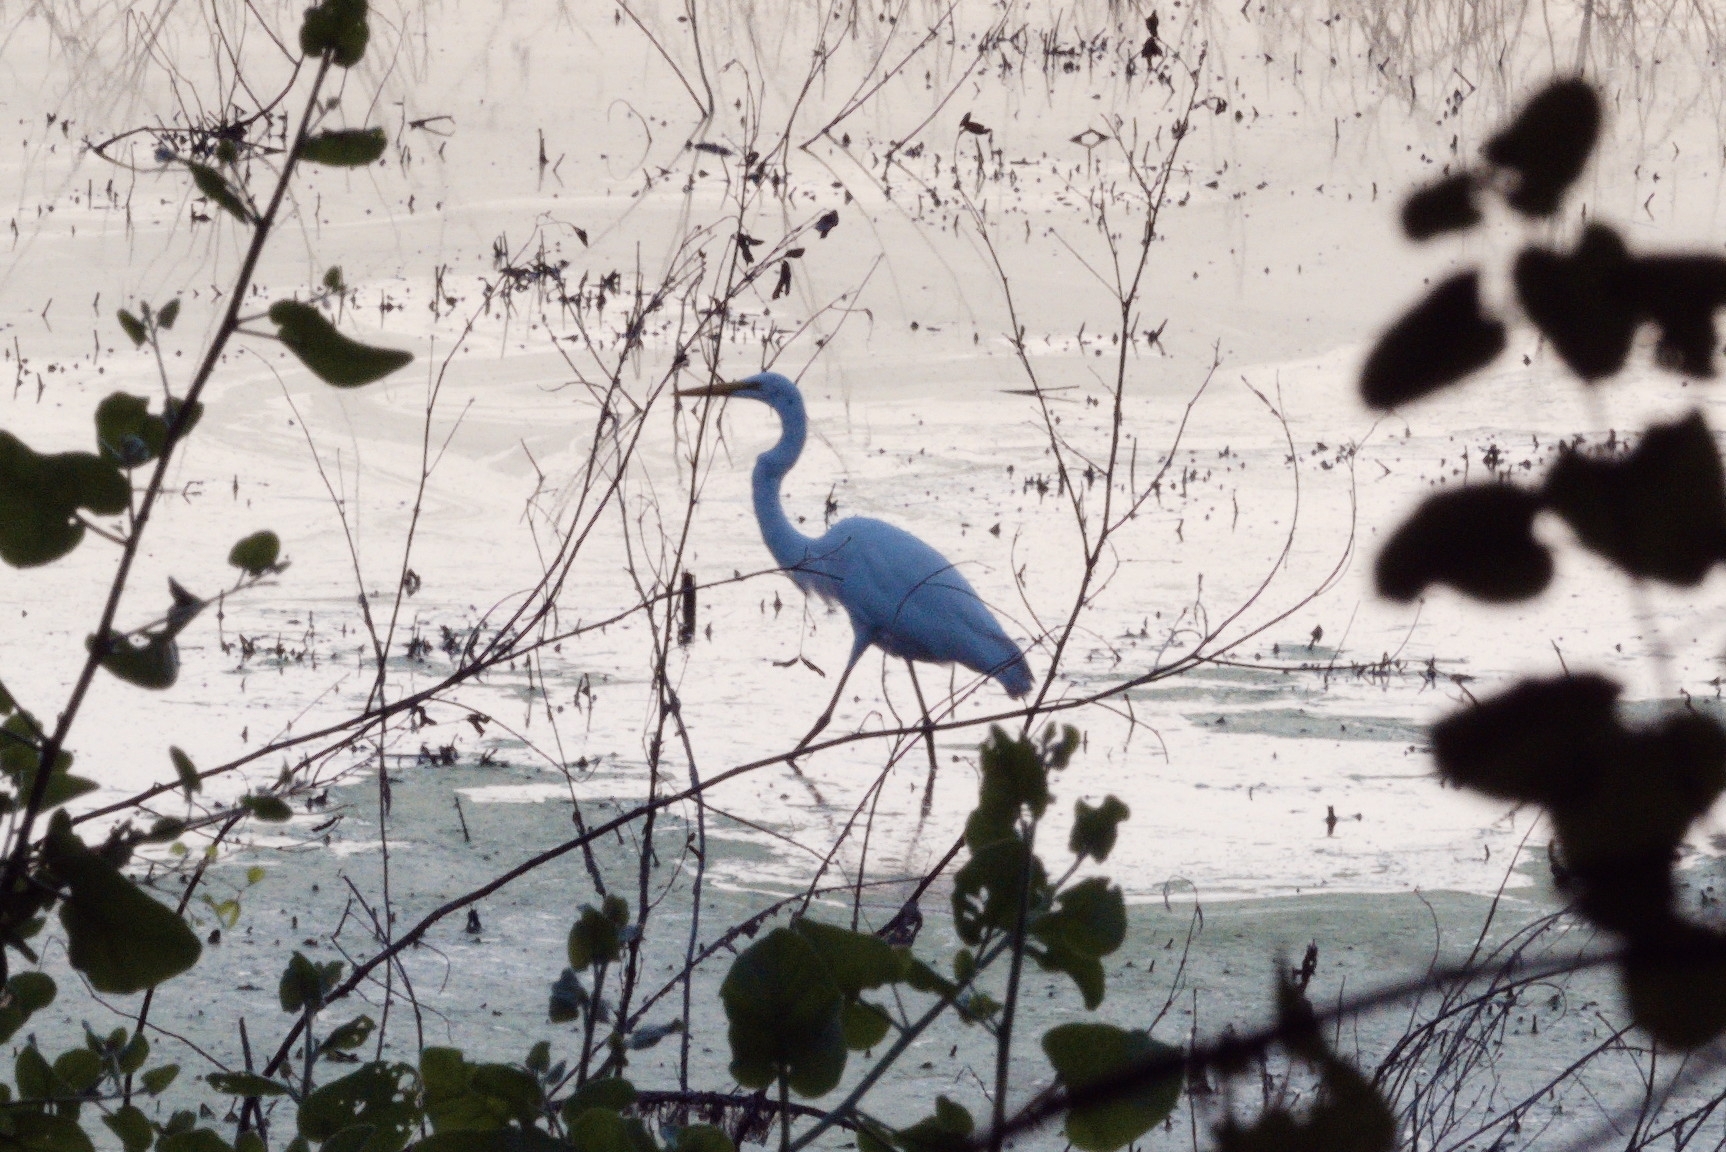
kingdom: Animalia
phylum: Chordata
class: Aves
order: Pelecaniformes
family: Ardeidae
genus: Ardea
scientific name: Ardea alba
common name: Great egret
